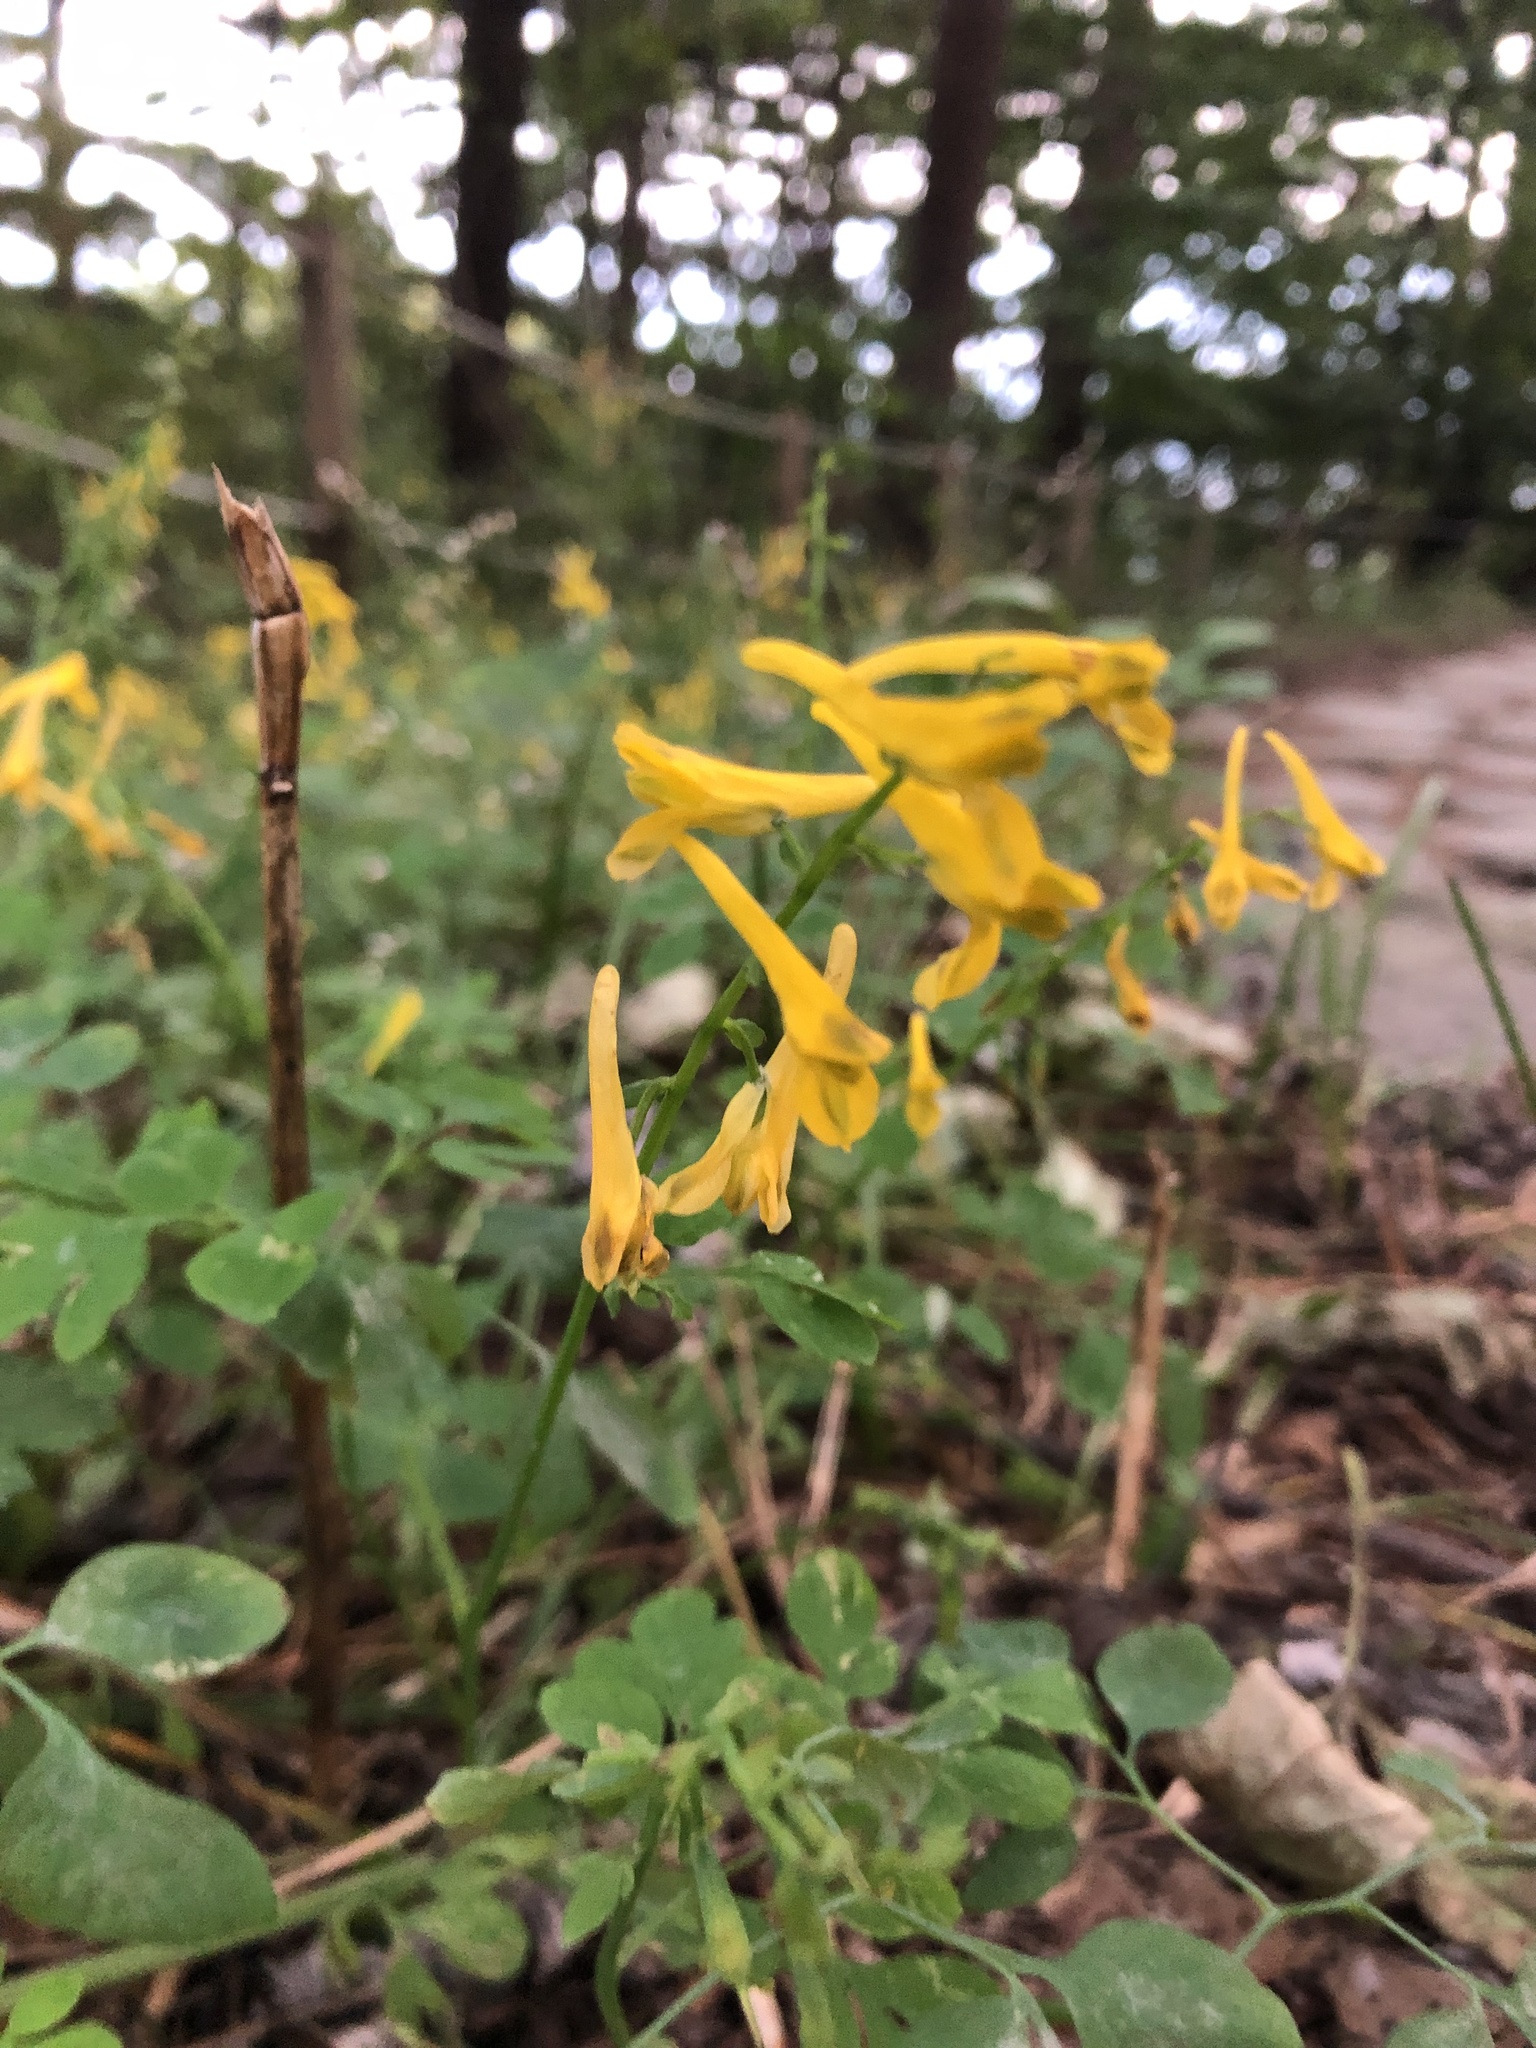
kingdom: Plantae
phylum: Tracheophyta
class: Magnoliopsida
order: Ranunculales
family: Papaveraceae
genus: Corydalis
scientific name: Corydalis pauciovulata
